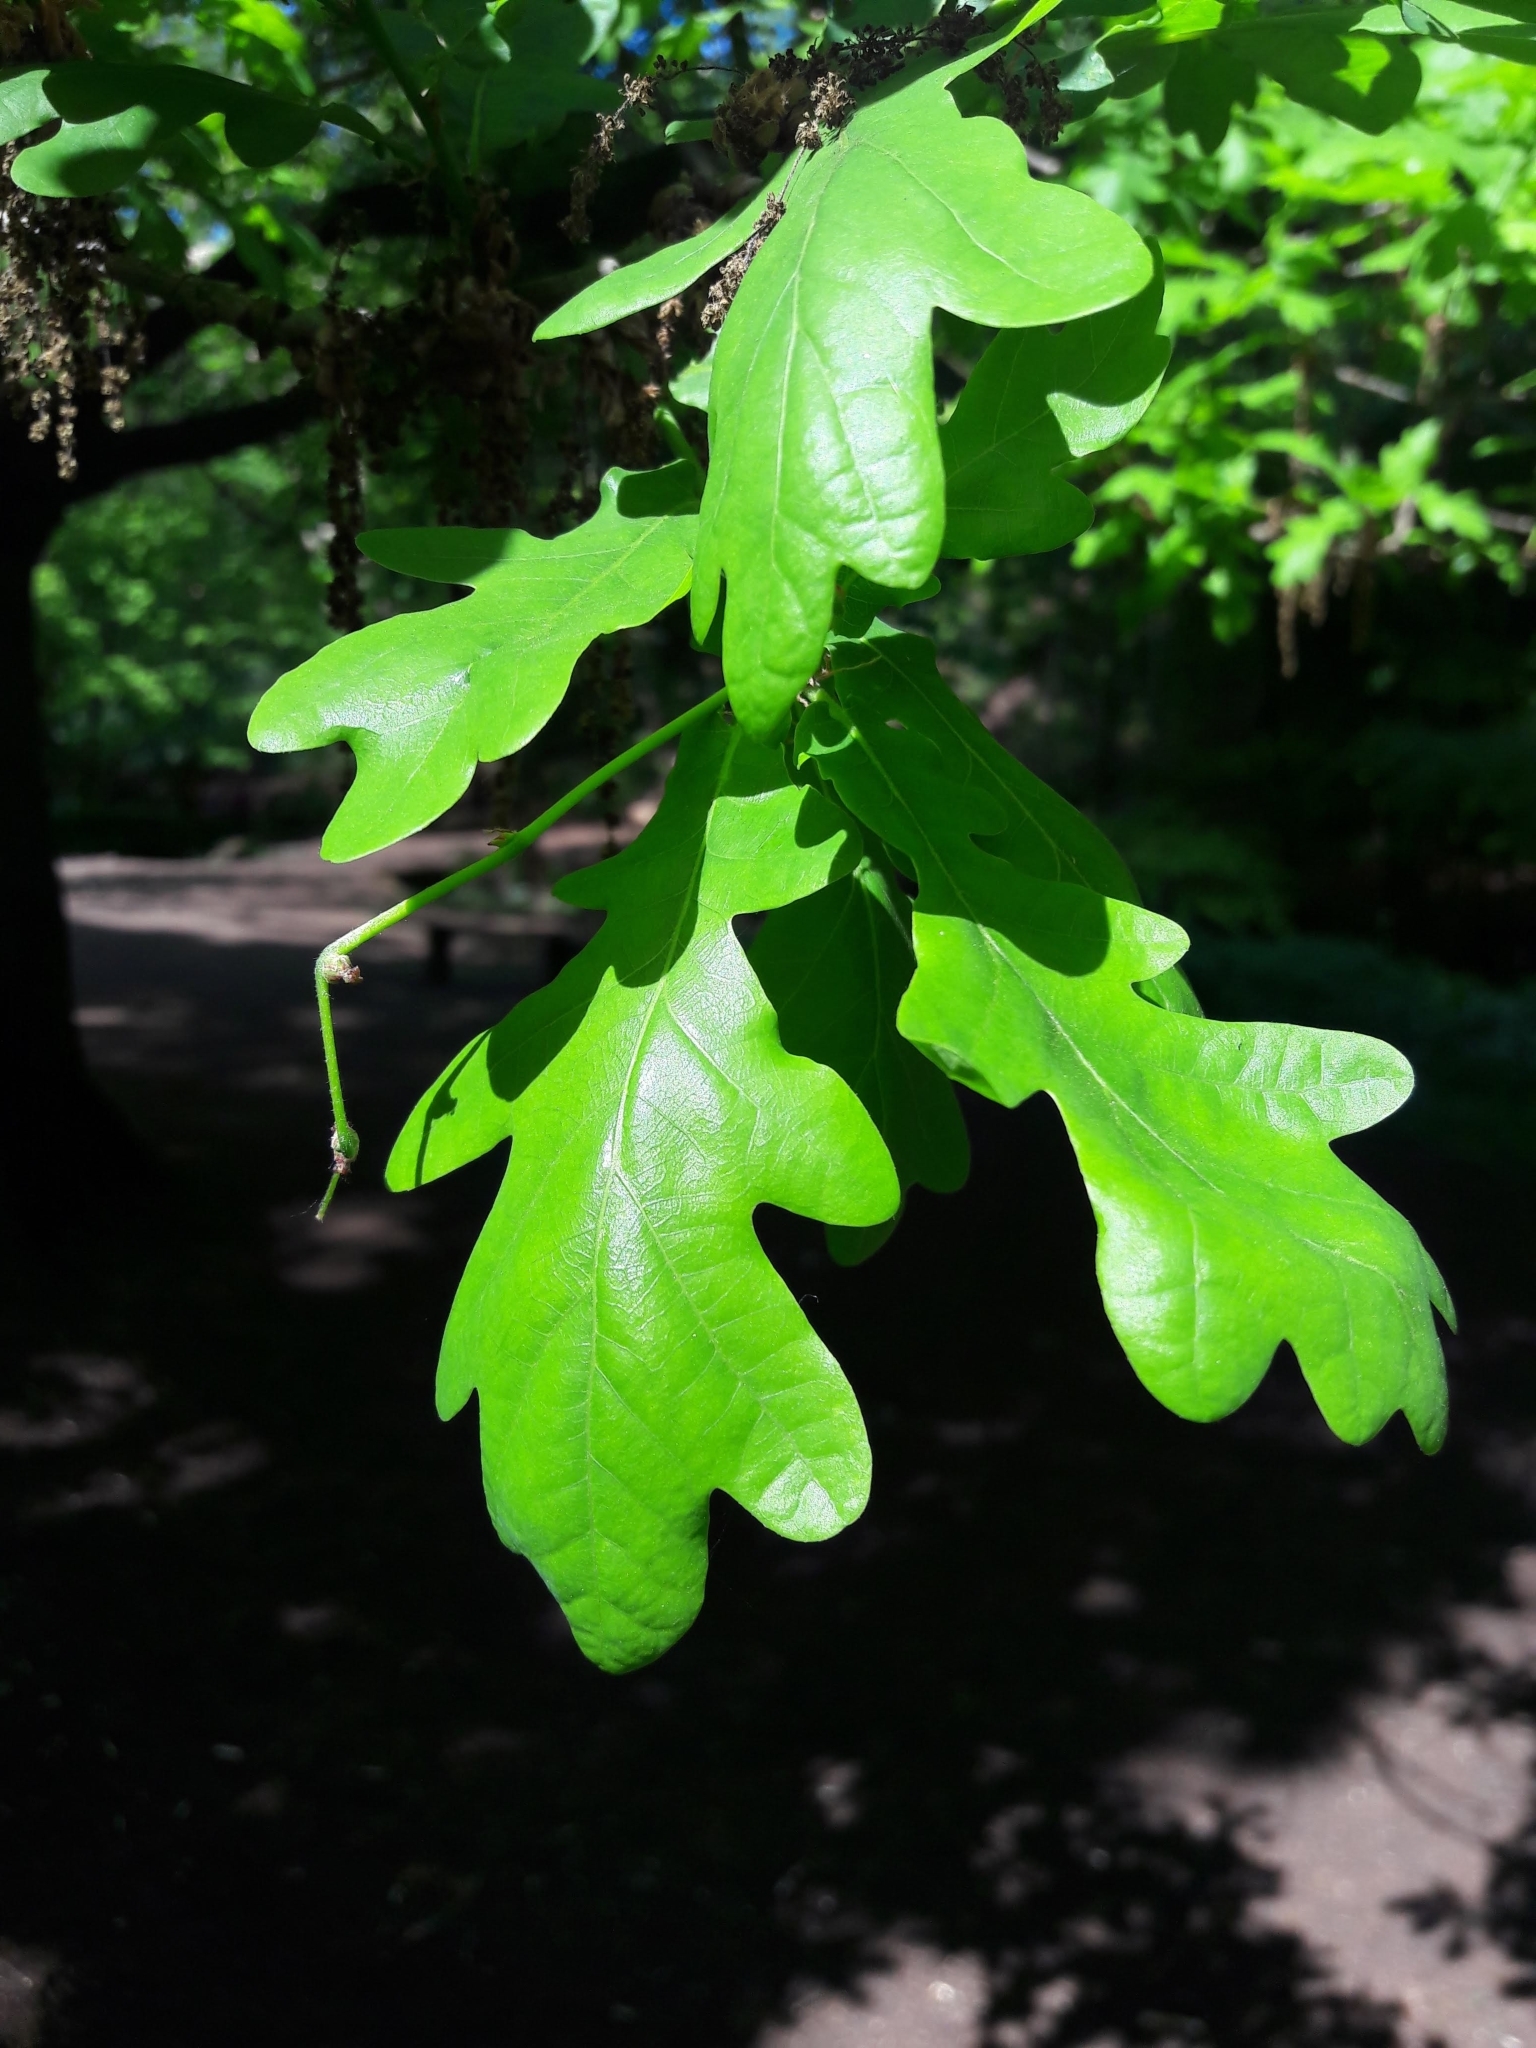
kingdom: Plantae
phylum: Tracheophyta
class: Magnoliopsida
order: Fagales
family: Fagaceae
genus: Quercus
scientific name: Quercus robur
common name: Pedunculate oak
